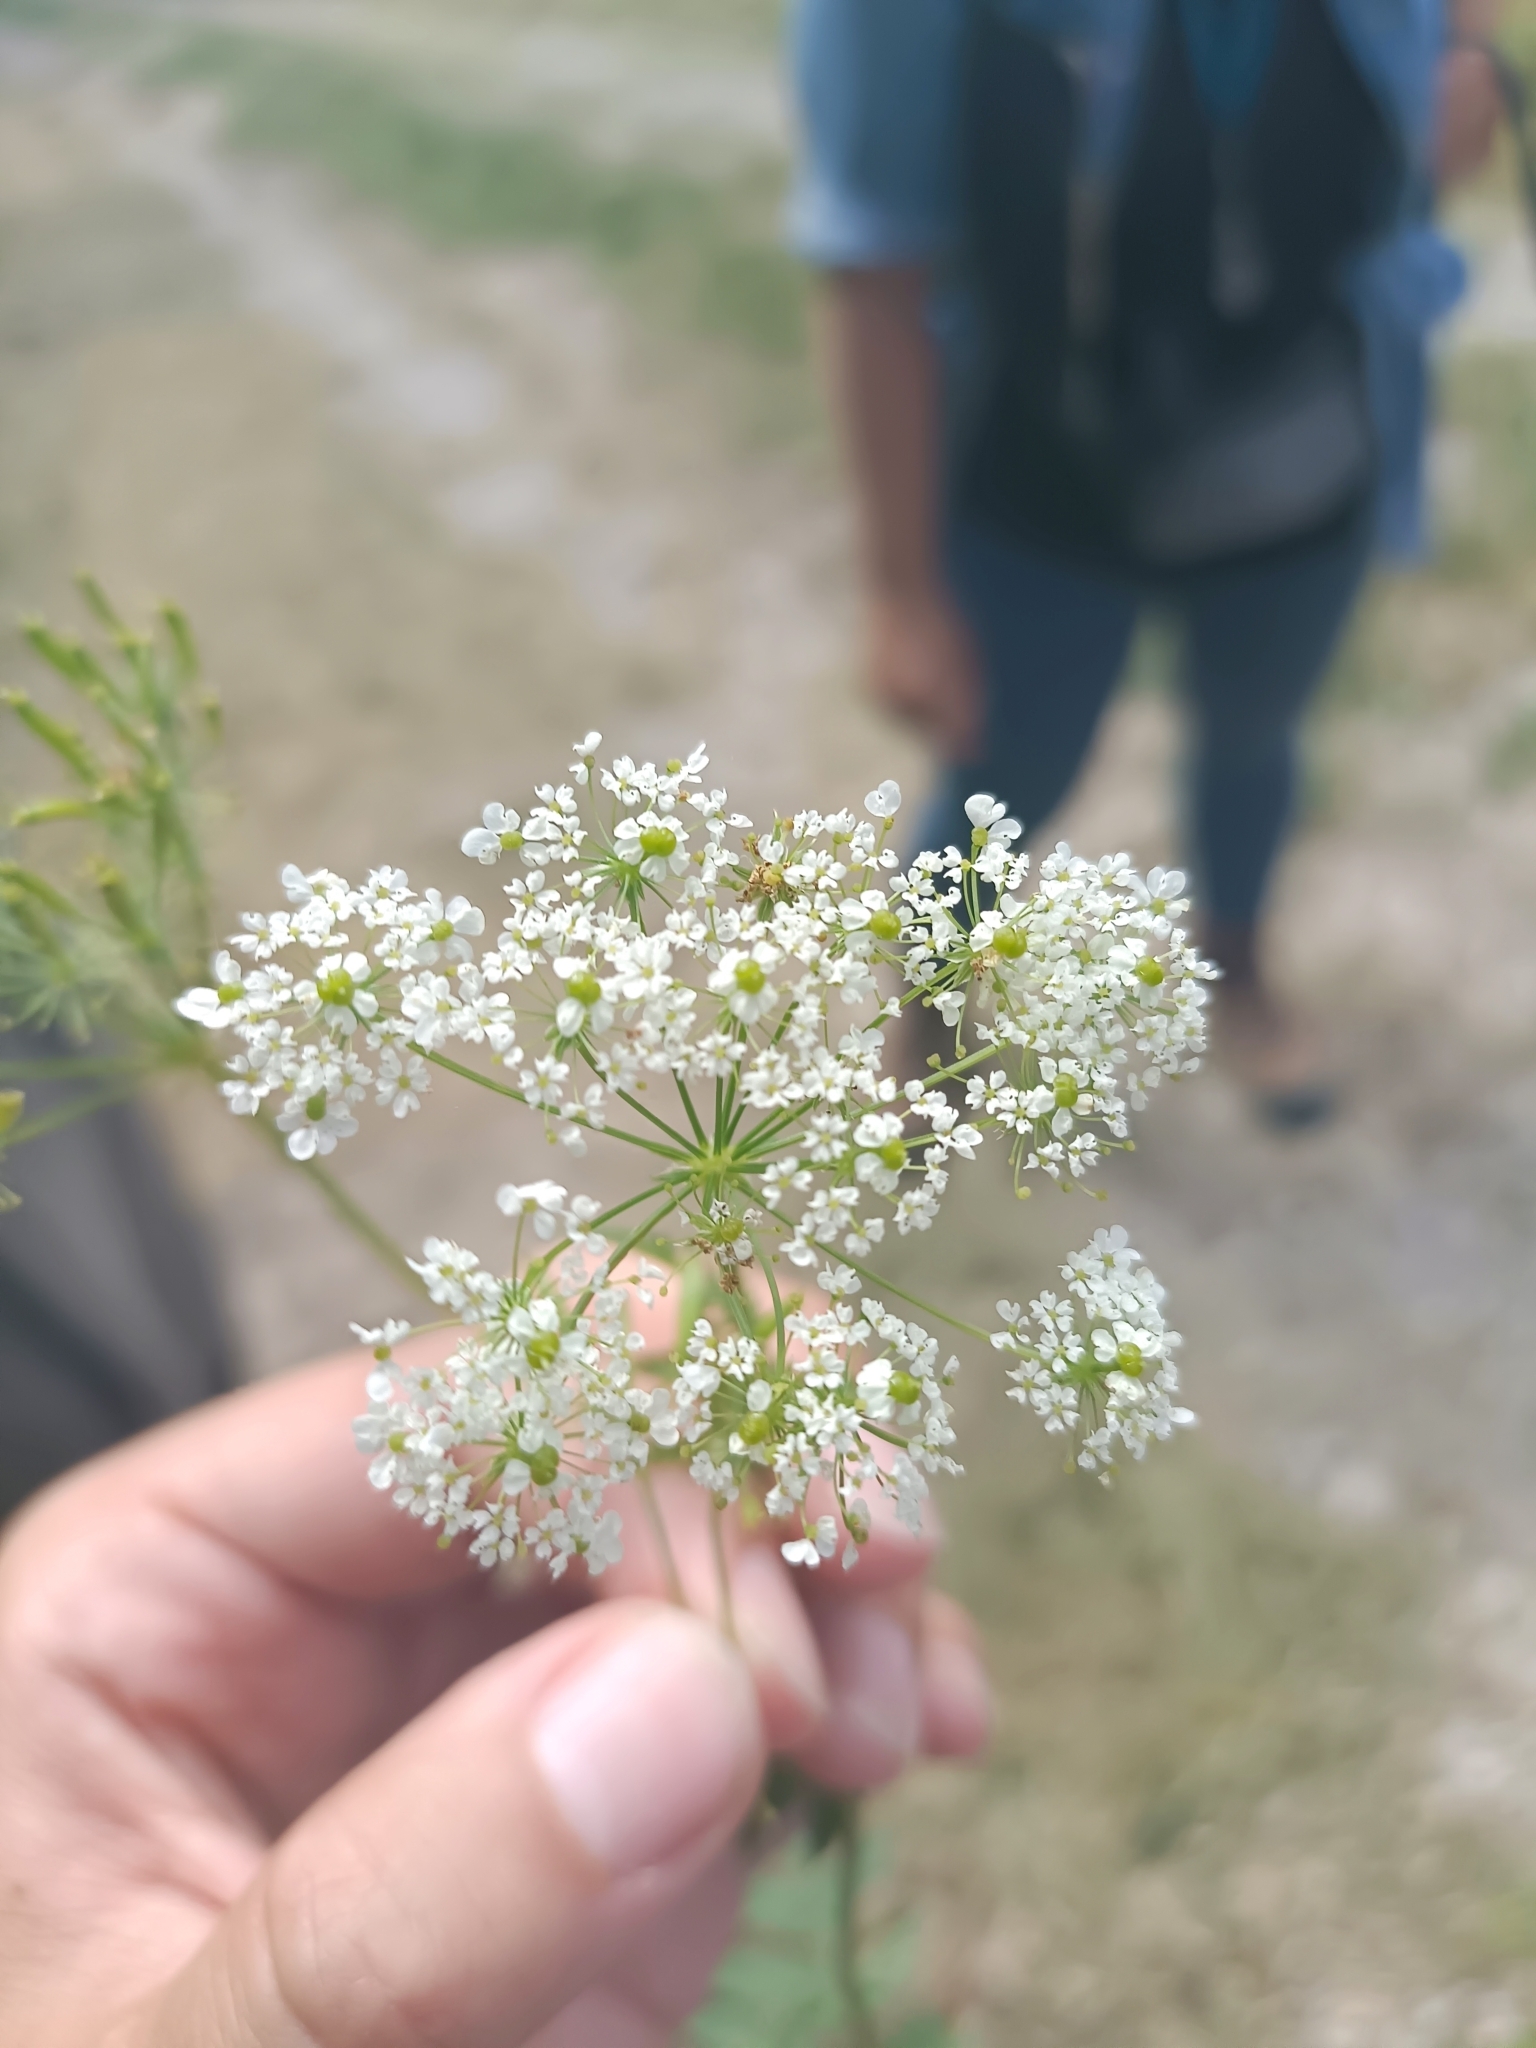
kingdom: Plantae
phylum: Tracheophyta
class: Magnoliopsida
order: Apiales
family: Apiaceae
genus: Chaerophyllum
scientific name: Chaerophyllum aureum
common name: Golden chervil
